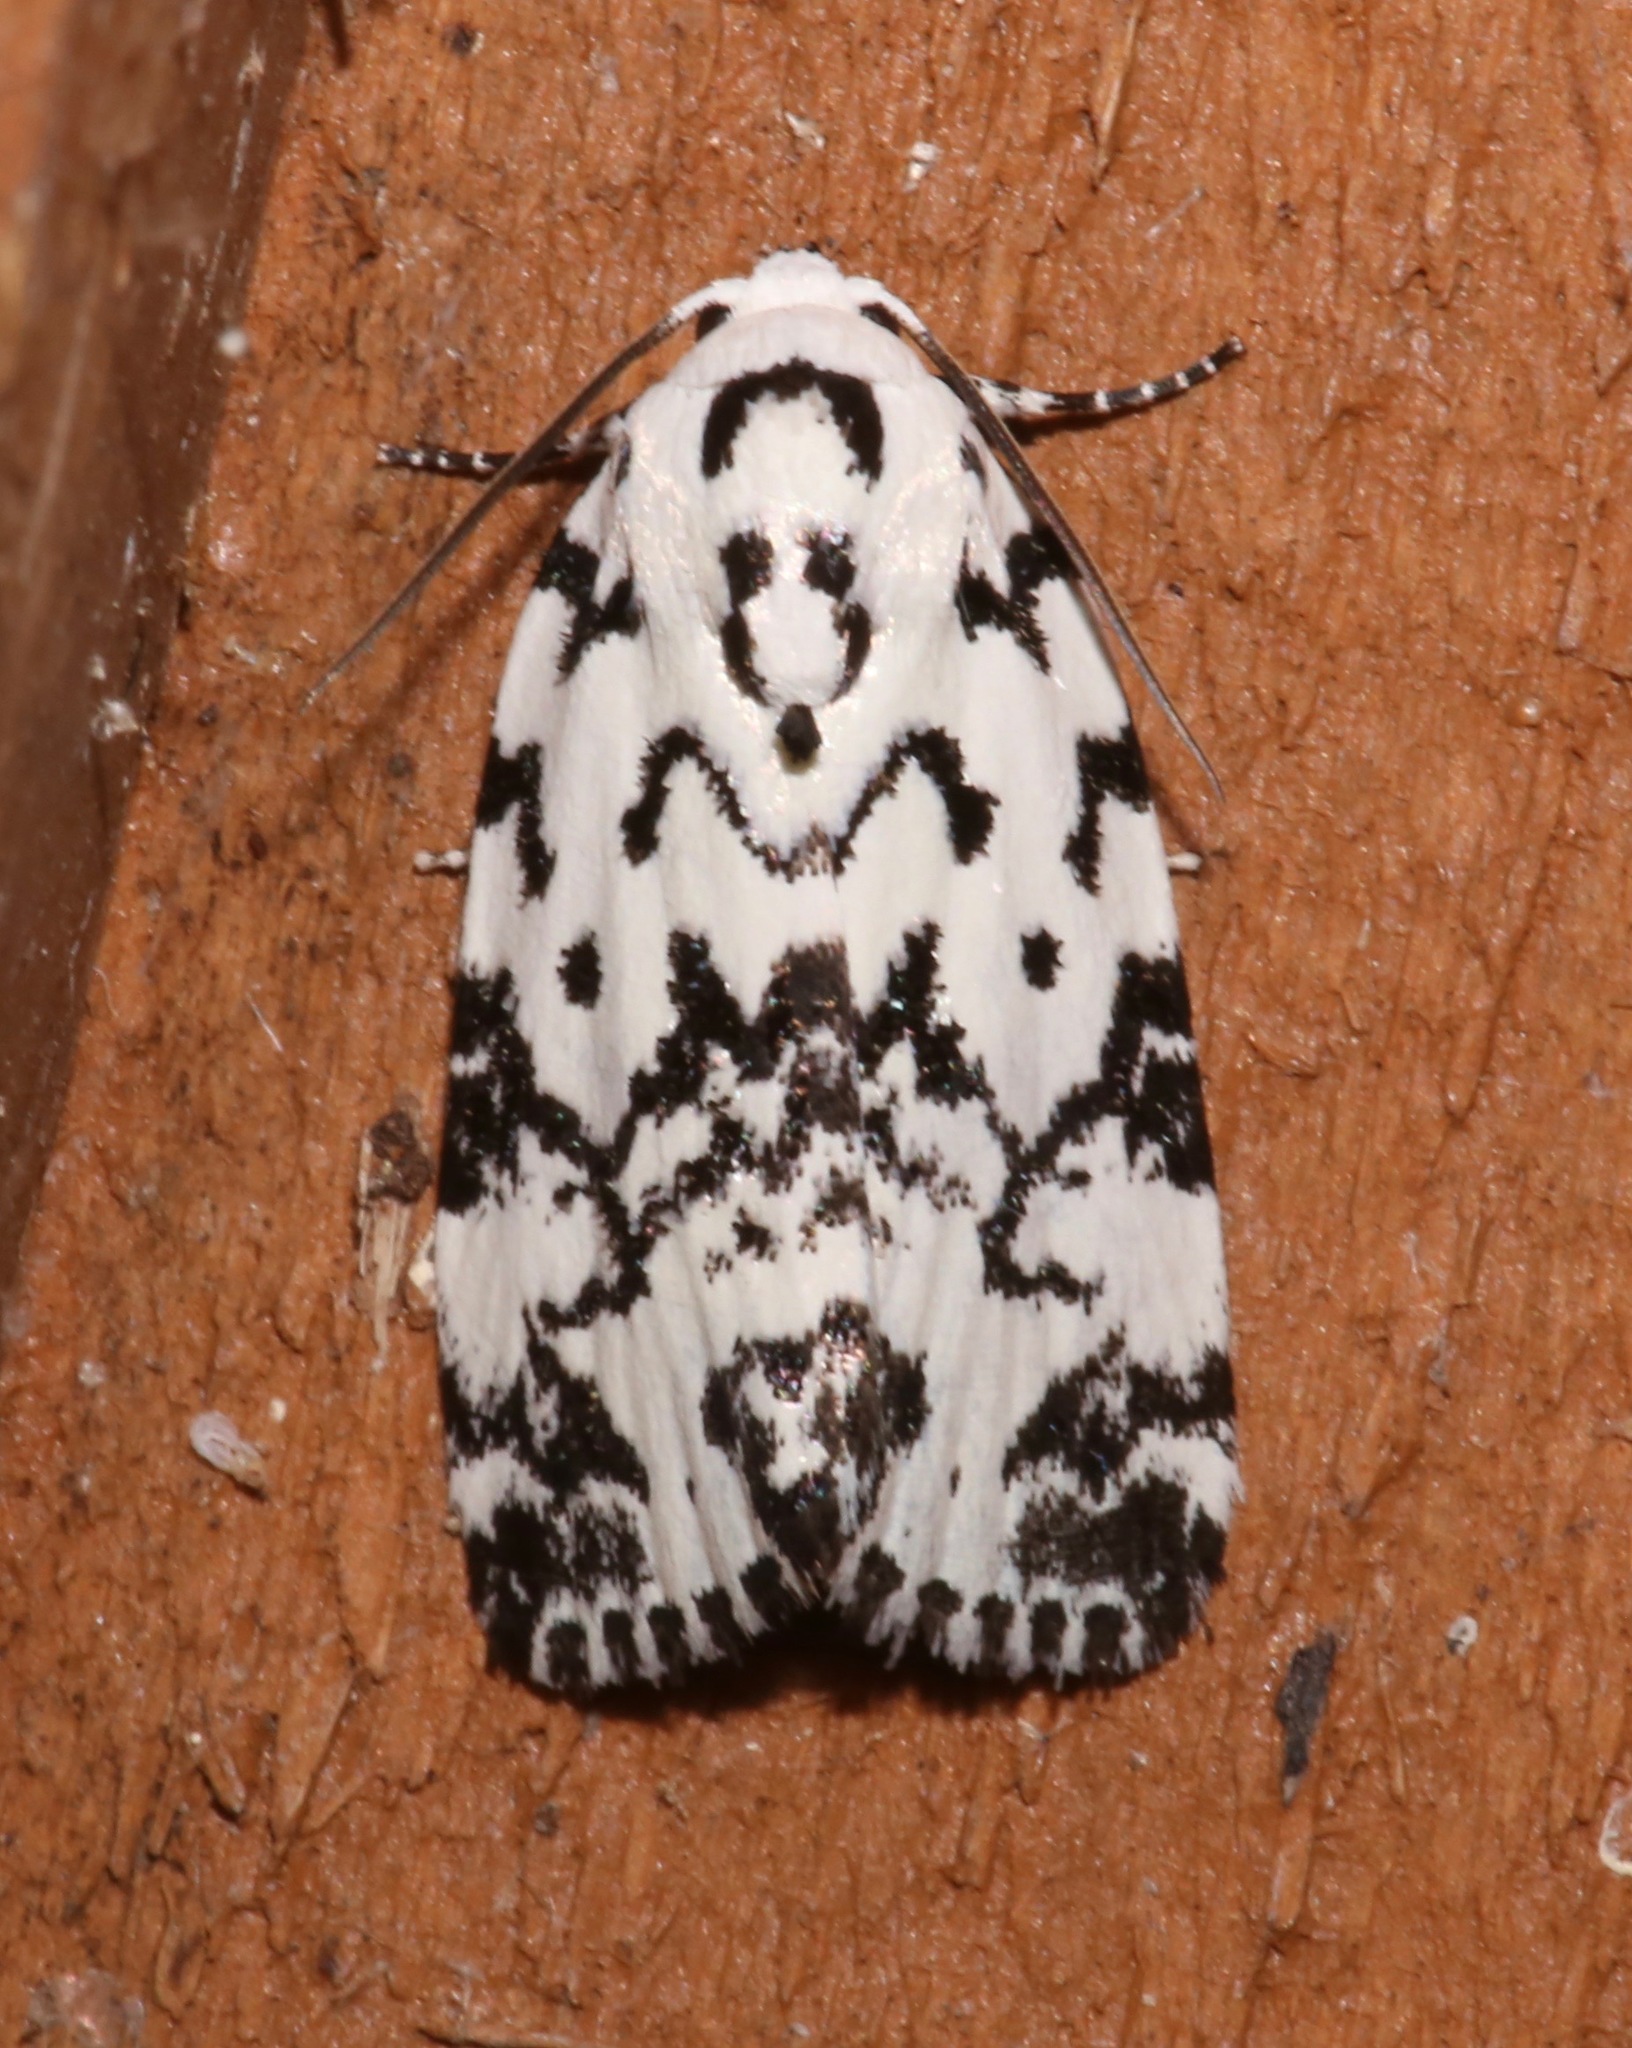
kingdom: Animalia
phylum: Arthropoda
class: Insecta
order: Lepidoptera
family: Noctuidae
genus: Polygrammate
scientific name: Polygrammate hebraeicum
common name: Hebrew moth
